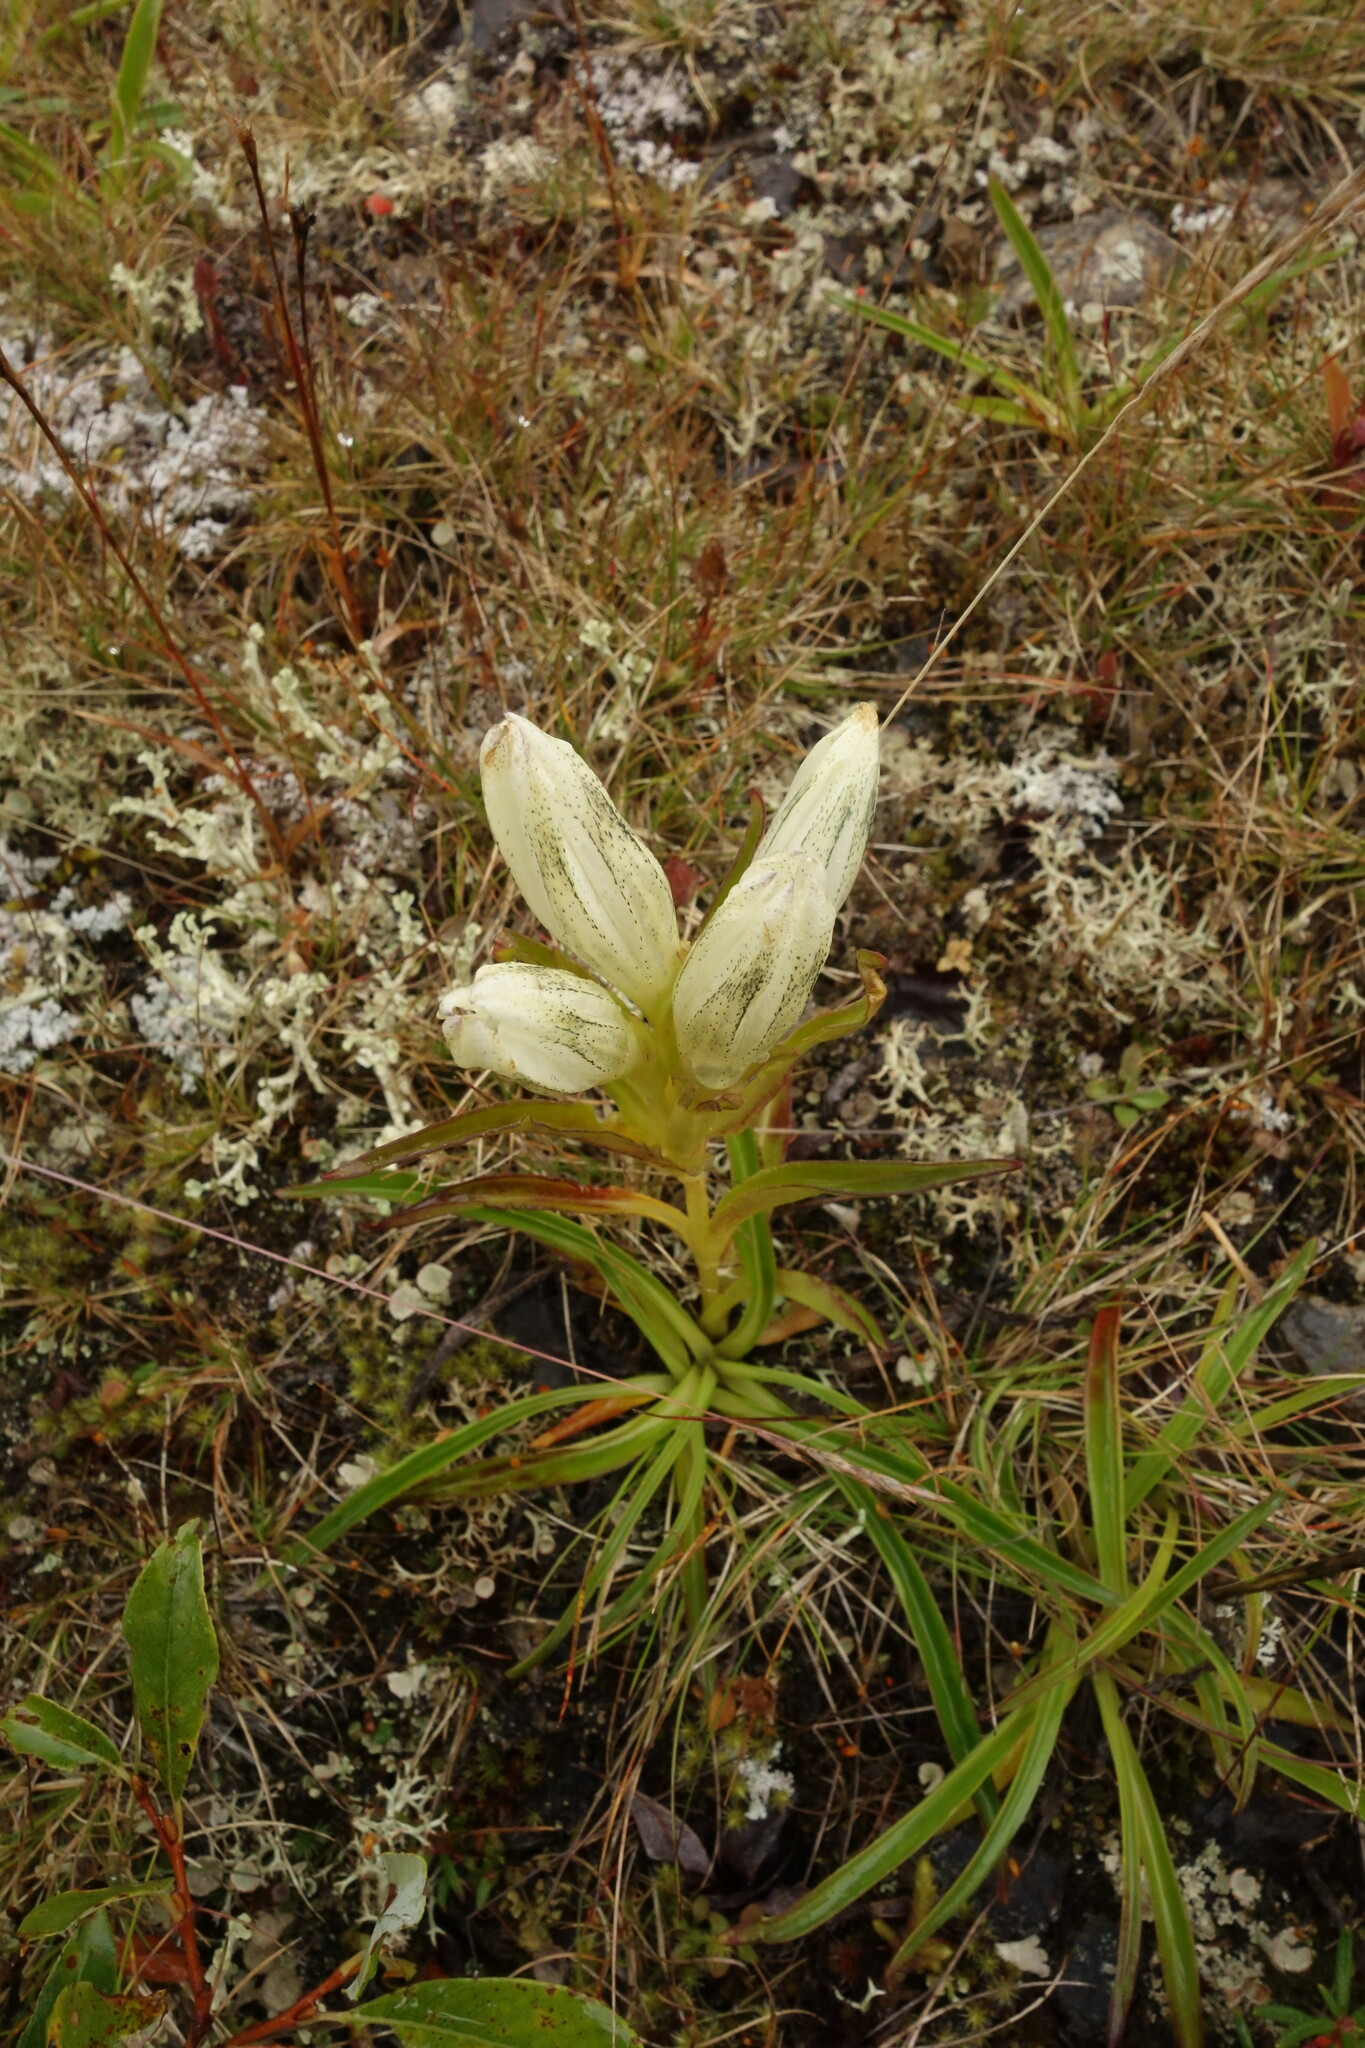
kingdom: Plantae
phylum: Tracheophyta
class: Magnoliopsida
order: Gentianales
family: Gentianaceae
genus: Gentiana
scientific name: Gentiana algida
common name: Arctic gentian
